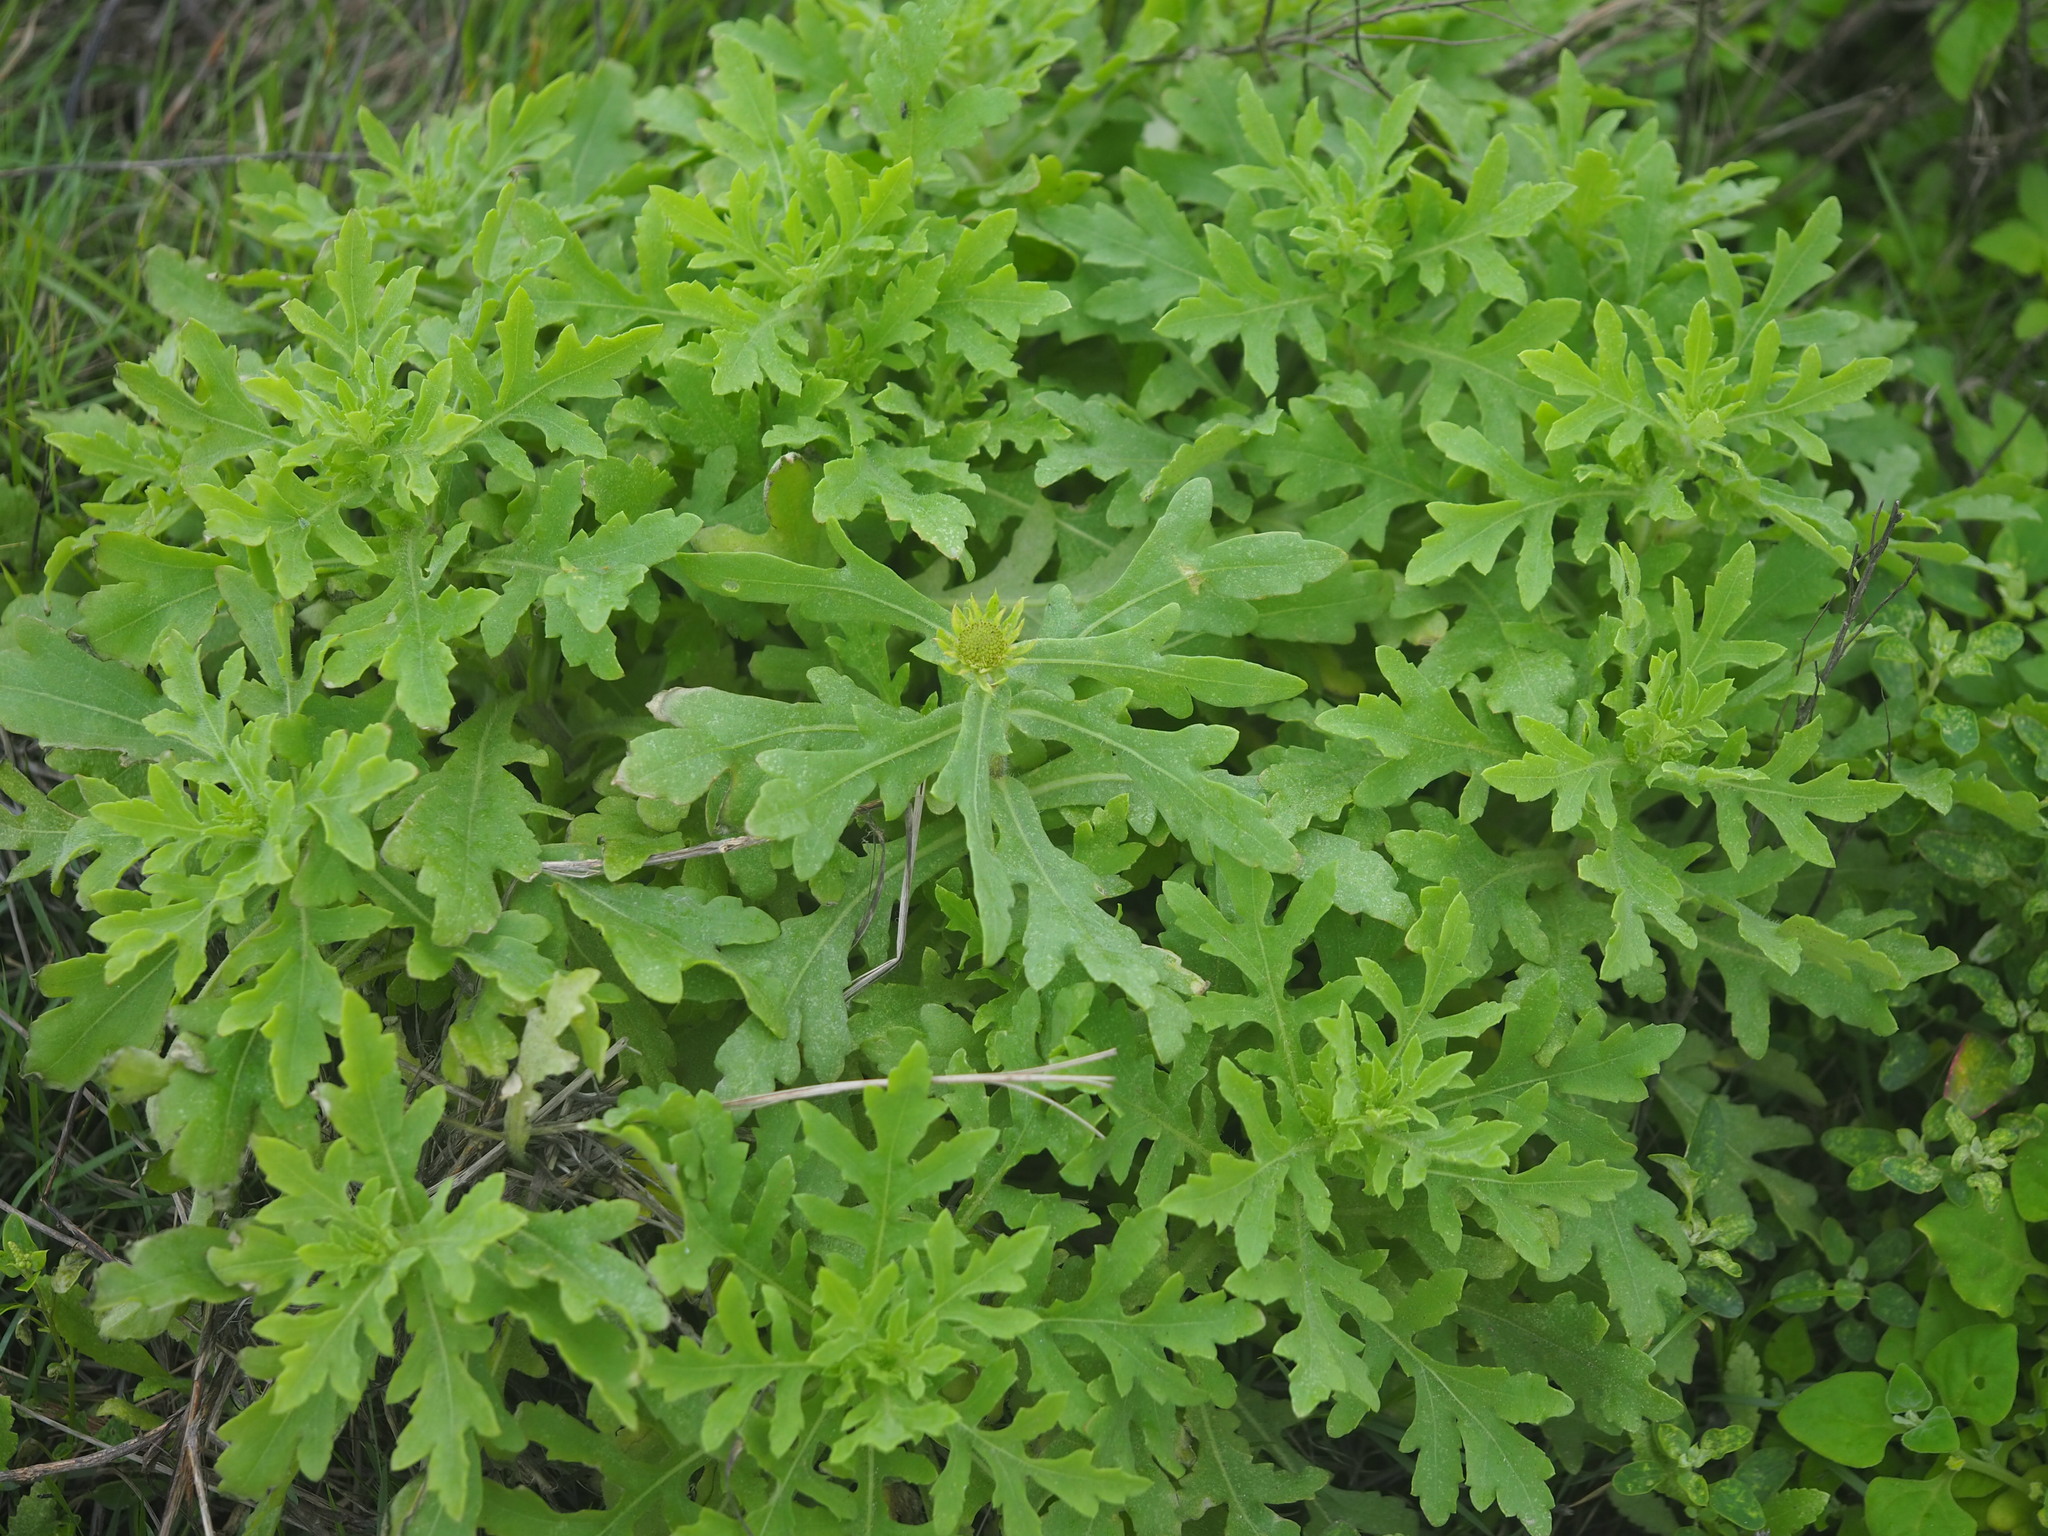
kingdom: Plantae
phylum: Tracheophyta
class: Magnoliopsida
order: Asterales
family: Asteraceae
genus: Gaillardia
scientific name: Gaillardia pulchella
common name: Firewheel
